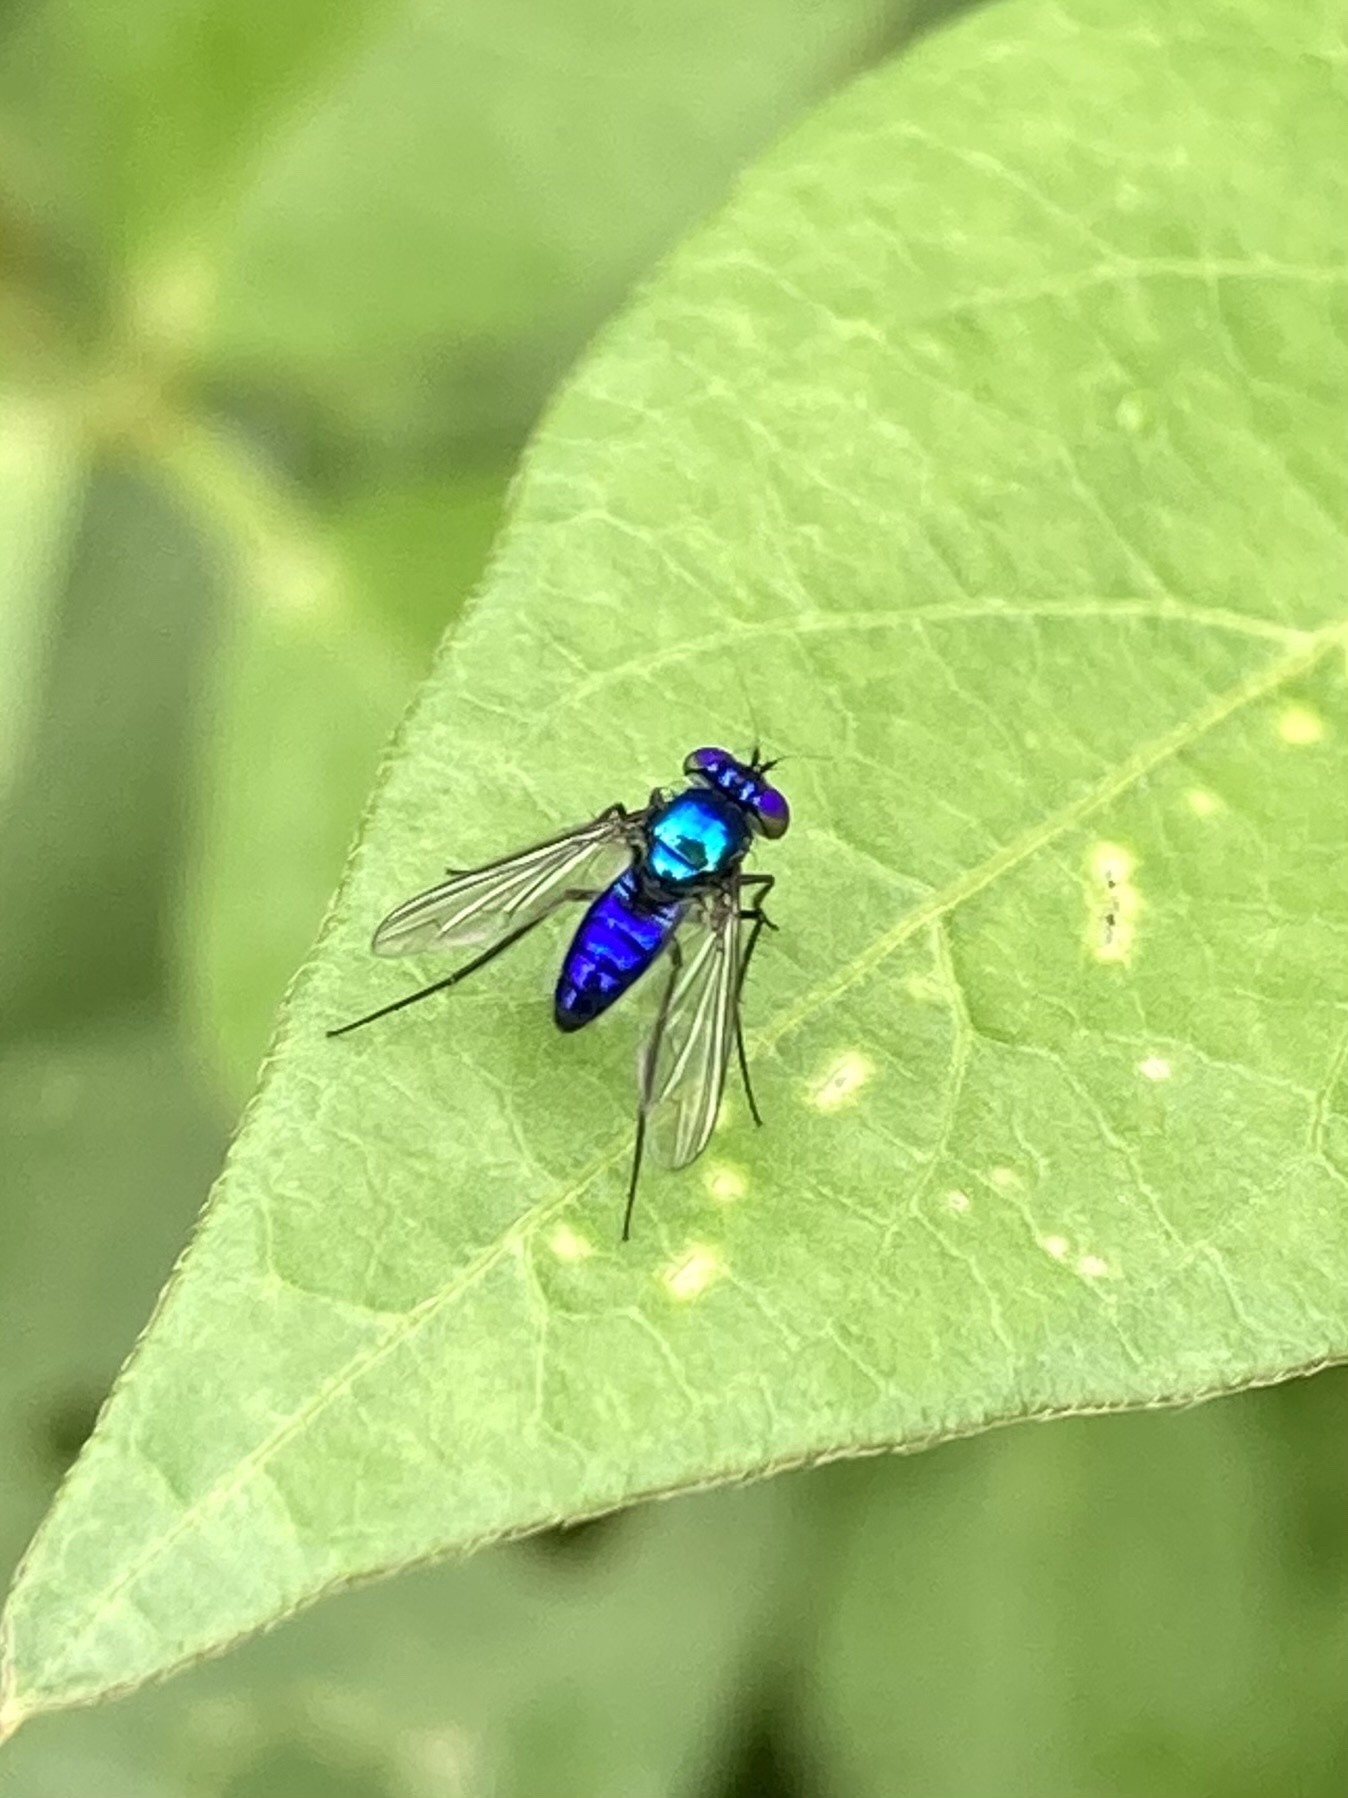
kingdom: Animalia
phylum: Arthropoda
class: Insecta
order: Diptera
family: Dolichopodidae
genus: Condylostylus
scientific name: Condylostylus mundus
